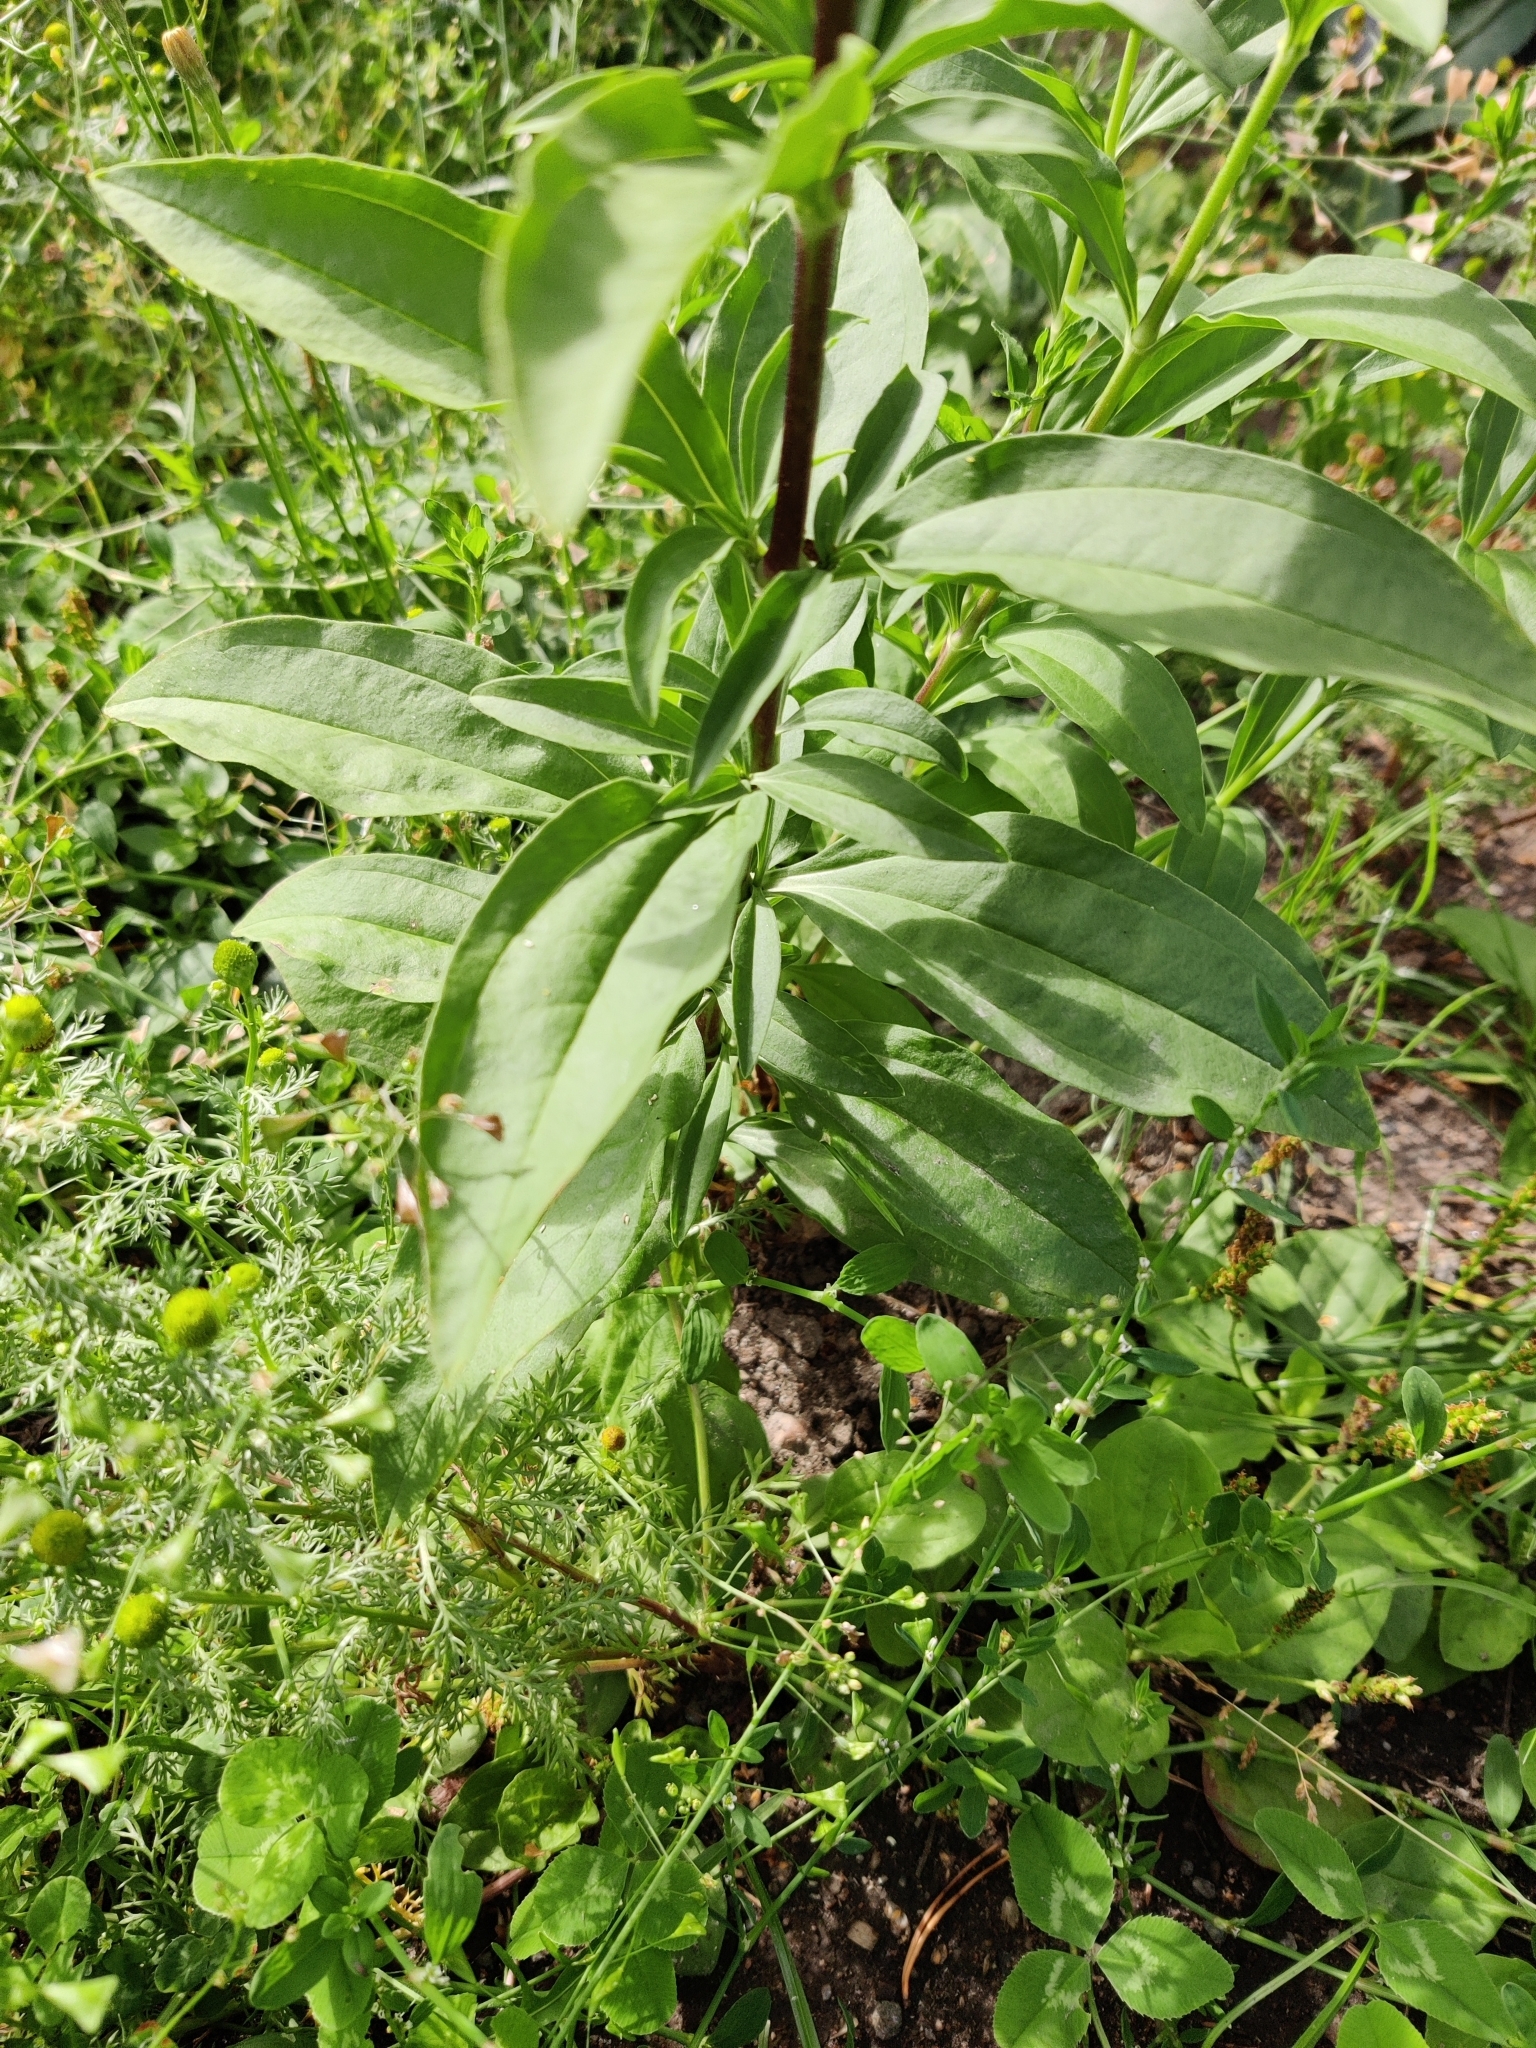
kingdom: Plantae
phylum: Tracheophyta
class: Magnoliopsida
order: Caryophyllales
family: Caryophyllaceae
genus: Saponaria
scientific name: Saponaria officinalis
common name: Soapwort
